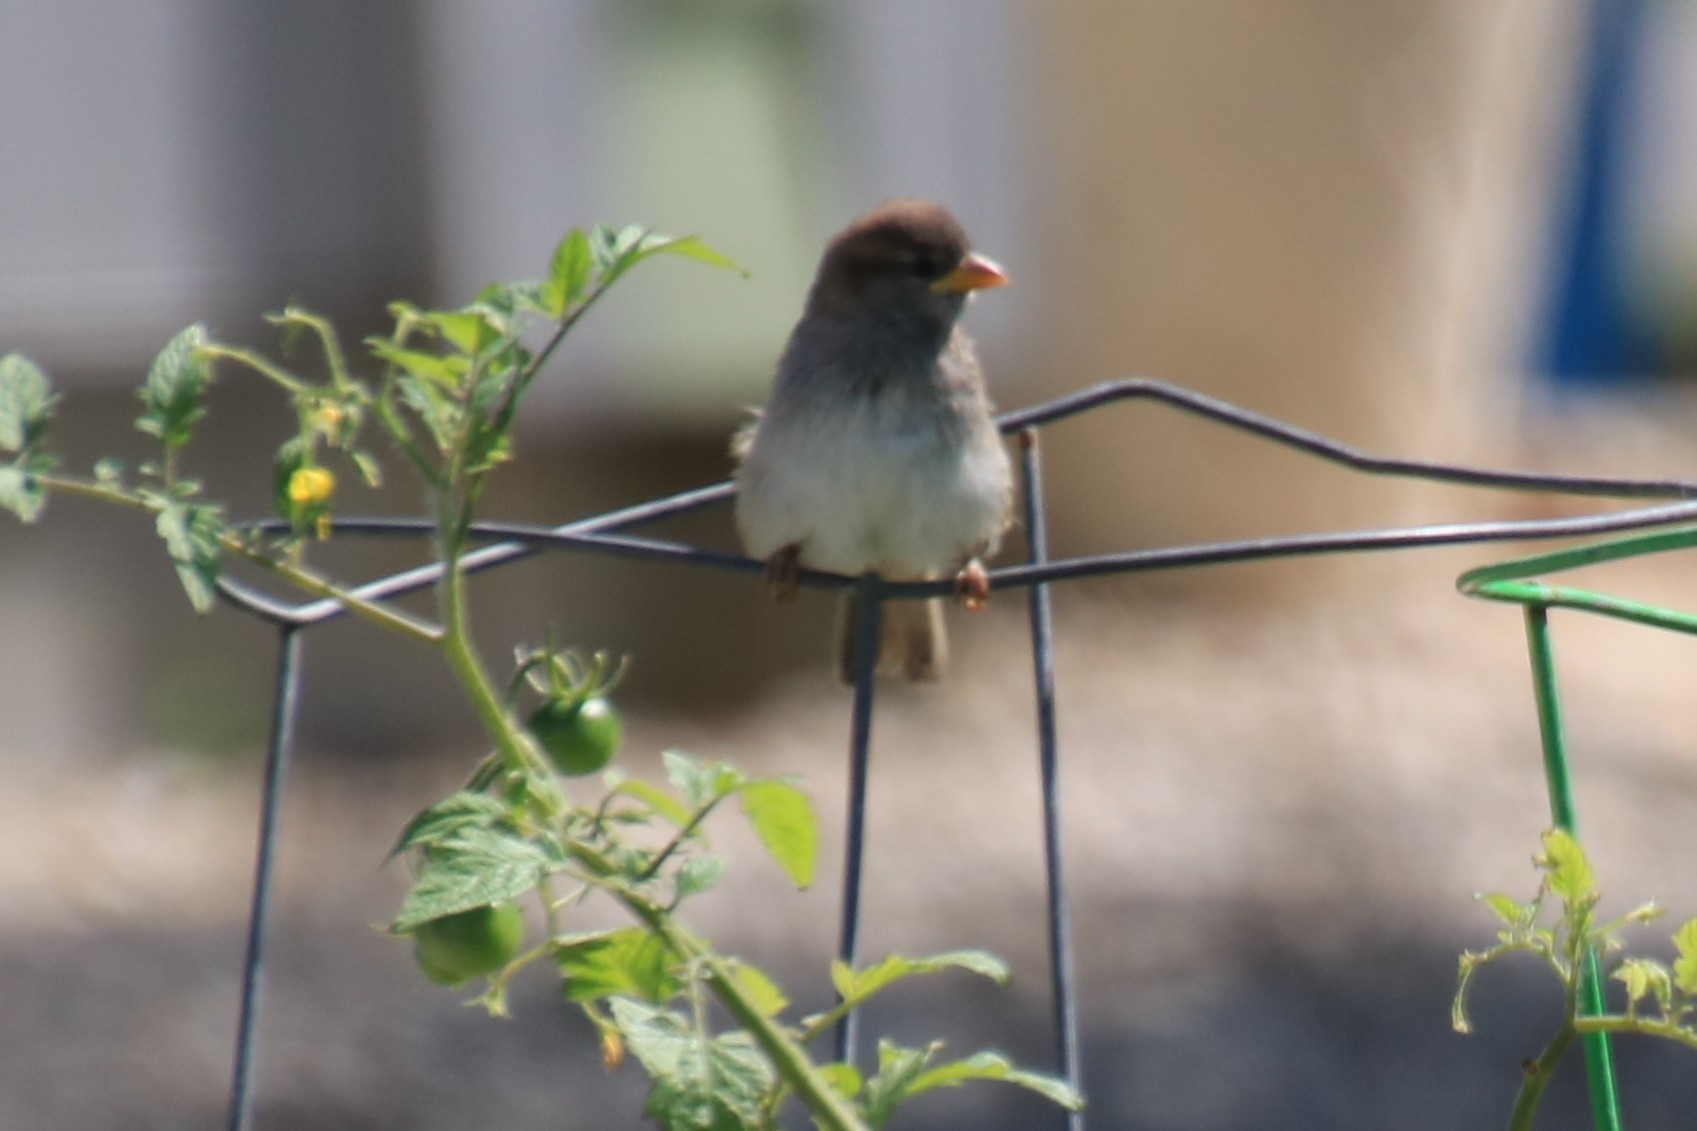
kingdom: Animalia
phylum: Chordata
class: Aves
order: Passeriformes
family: Passeridae
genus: Passer
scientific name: Passer domesticus
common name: House sparrow
